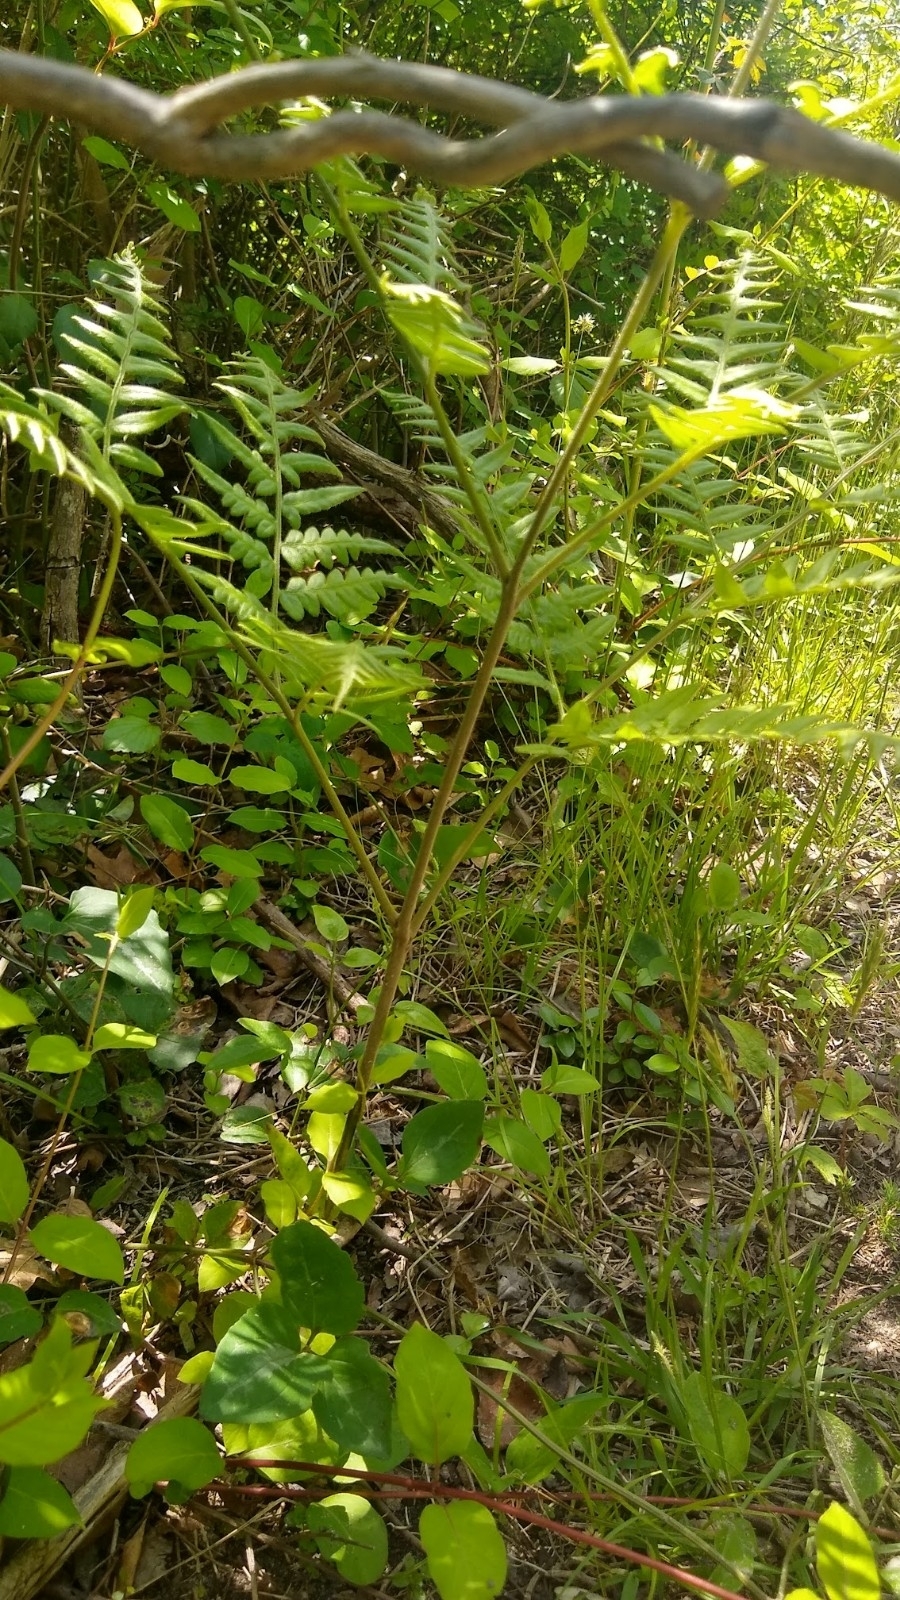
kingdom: Plantae
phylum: Tracheophyta
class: Polypodiopsida
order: Polypodiales
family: Dennstaedtiaceae
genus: Pteridium
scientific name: Pteridium aquilinum
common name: Bracken
